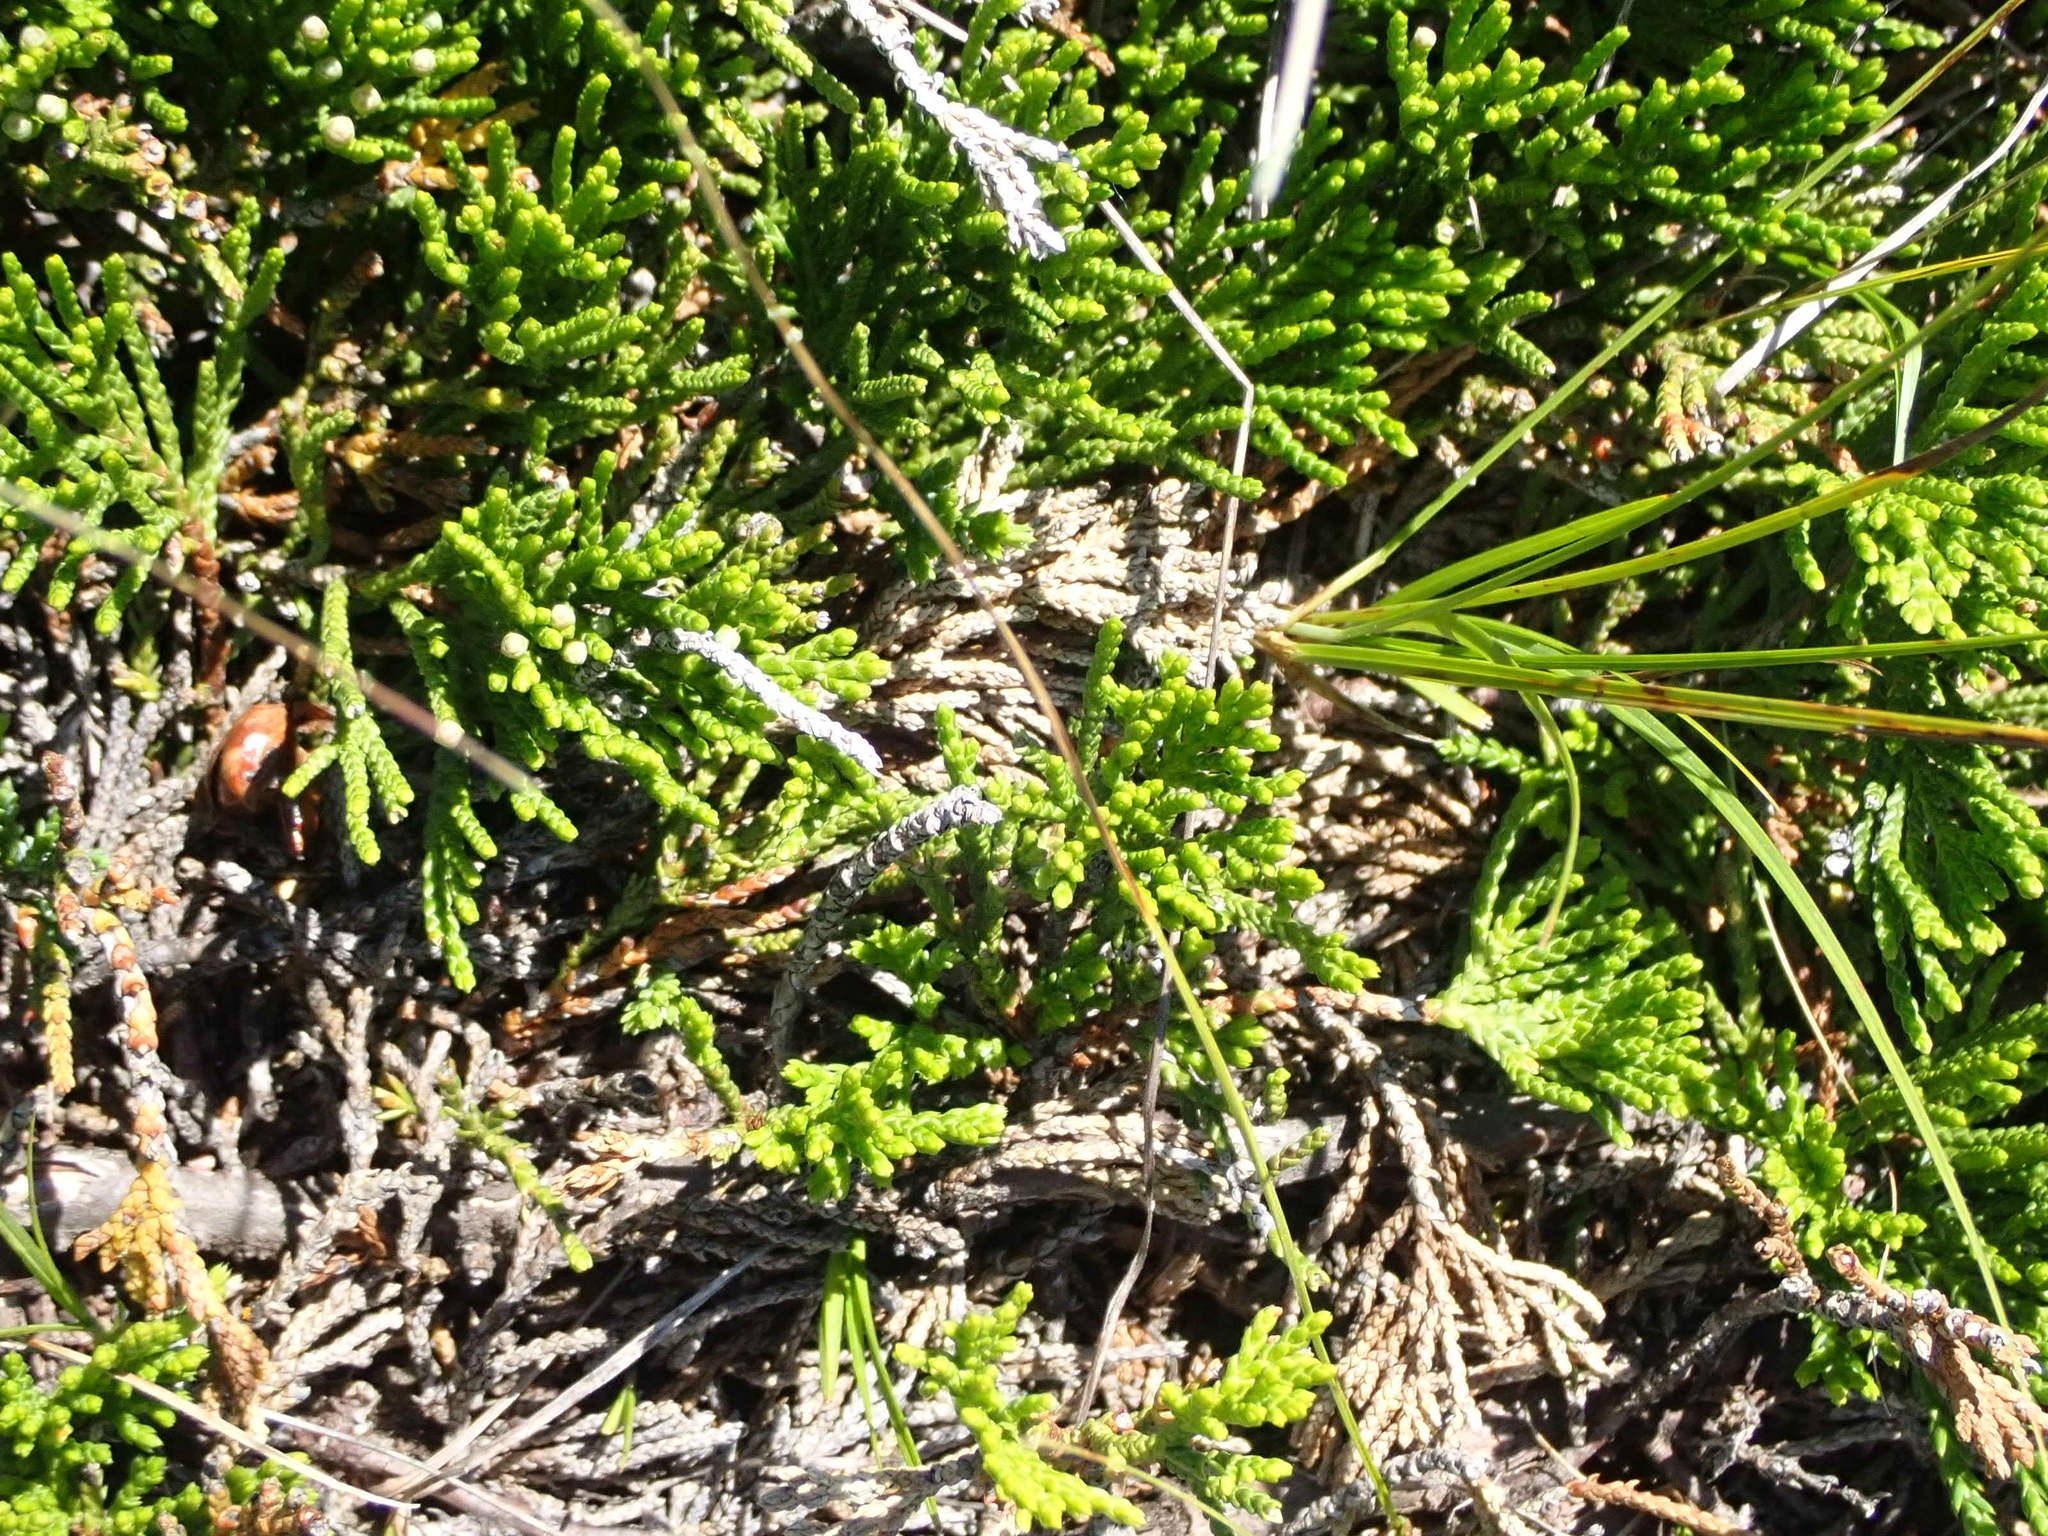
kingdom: Plantae
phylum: Tracheophyta
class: Pinopsida
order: Pinales
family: Cupressaceae
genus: Juniperus
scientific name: Juniperus horizontalis
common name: Creeping juniper
